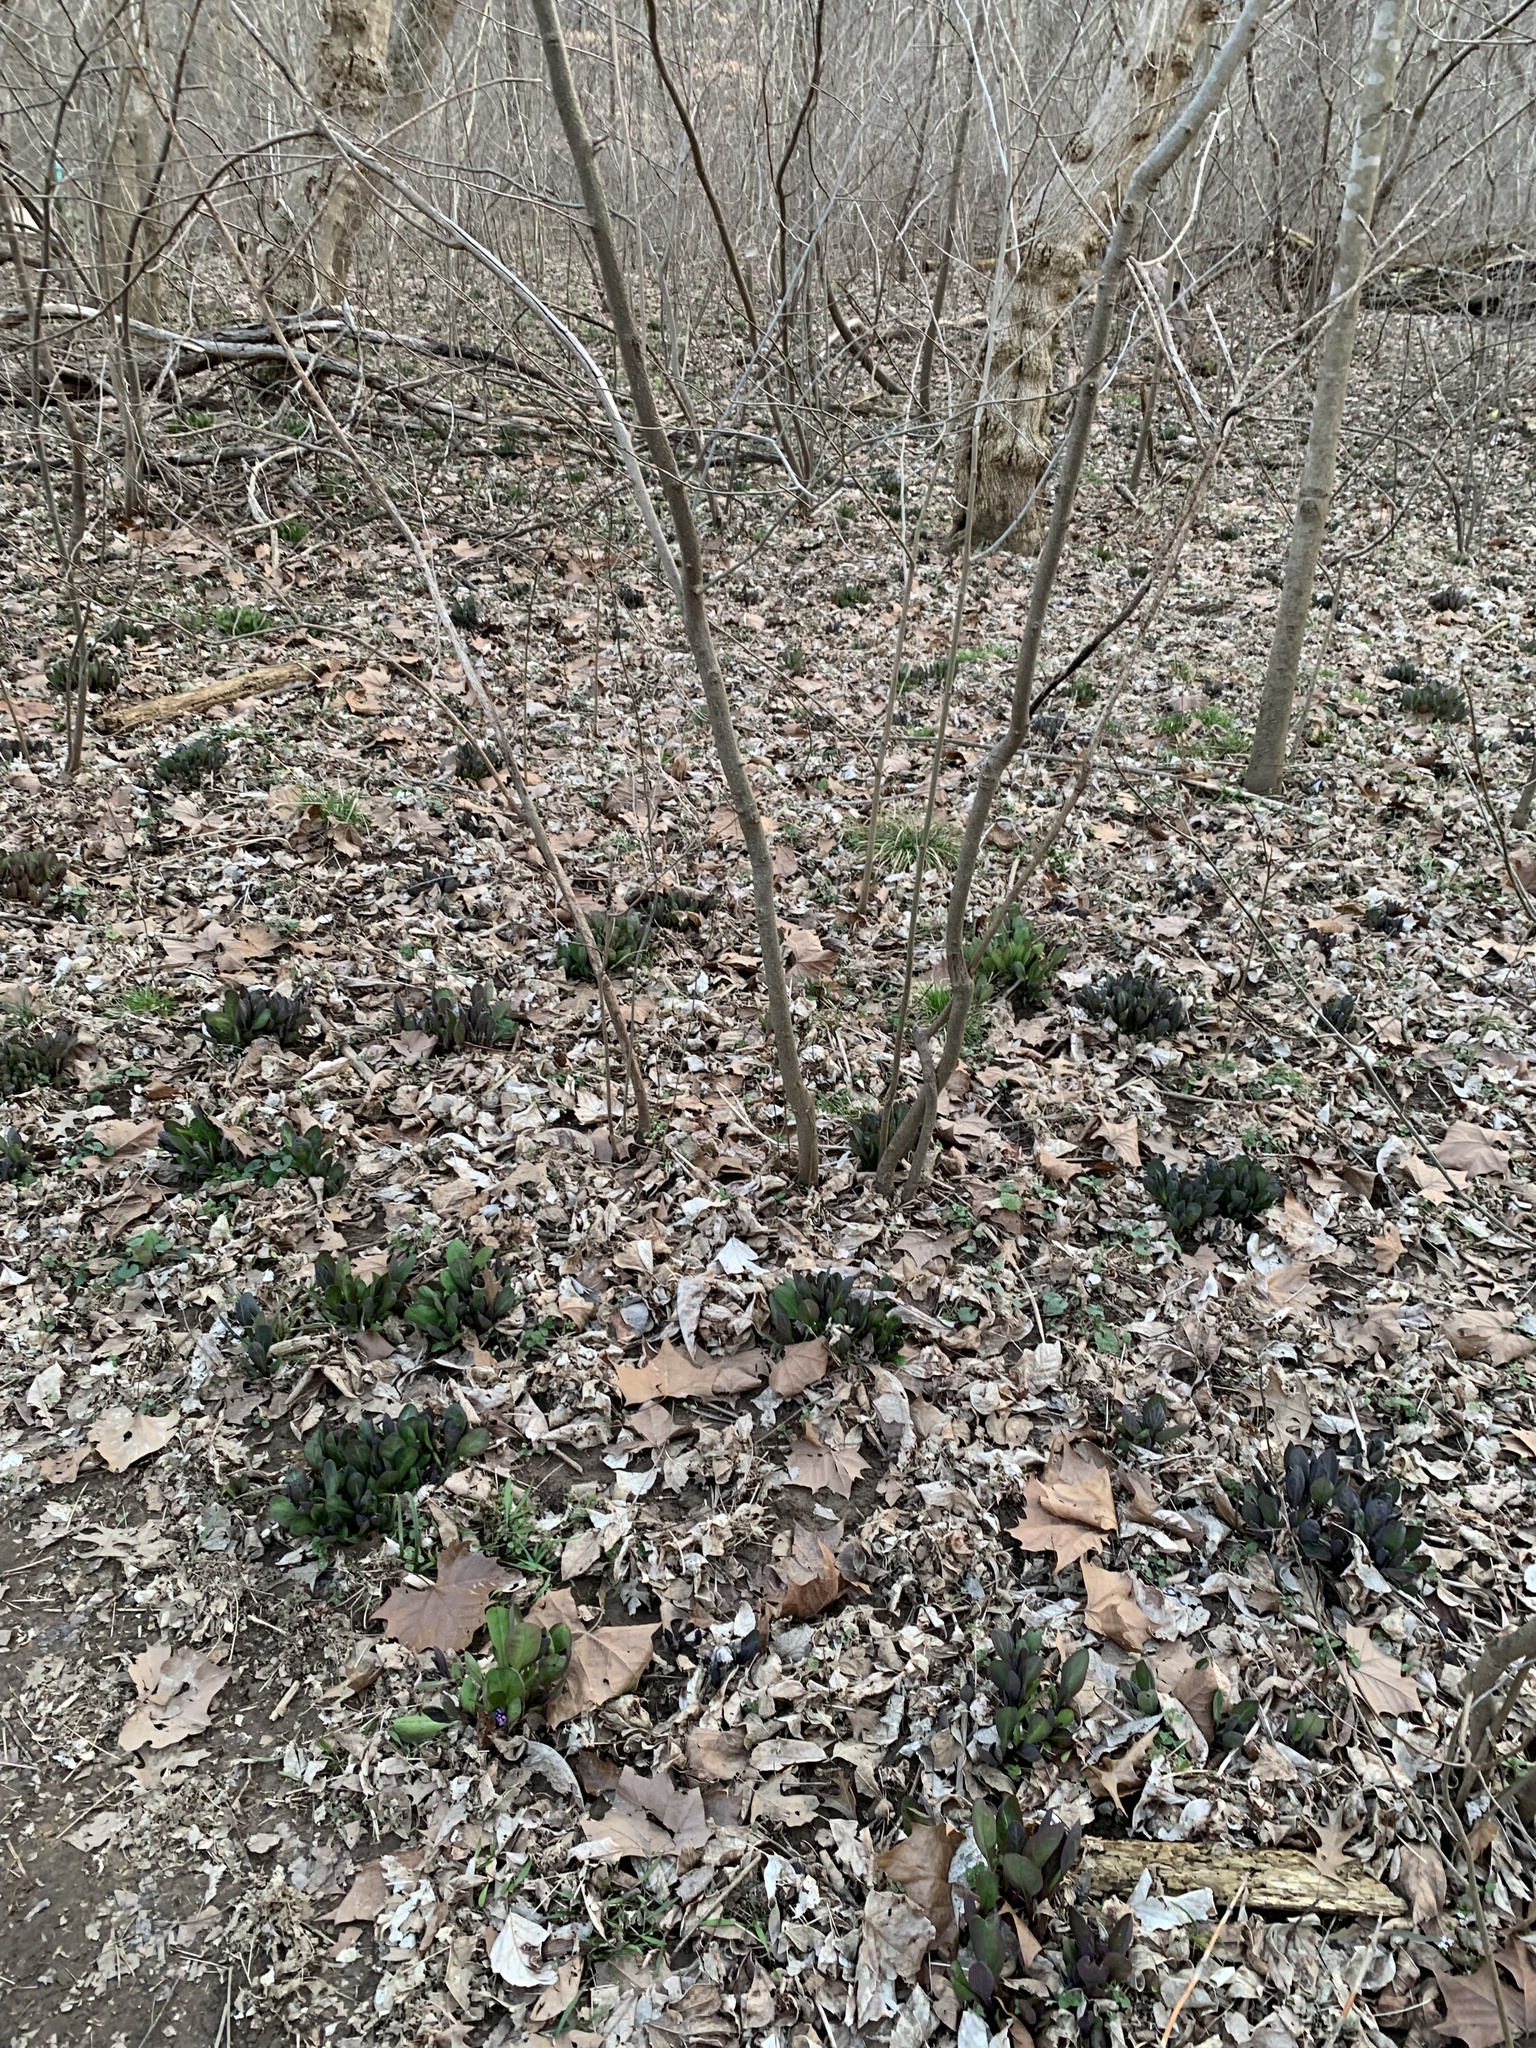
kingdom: Plantae
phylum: Tracheophyta
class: Magnoliopsida
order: Boraginales
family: Boraginaceae
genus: Mertensia
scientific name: Mertensia virginica
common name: Virginia bluebells
